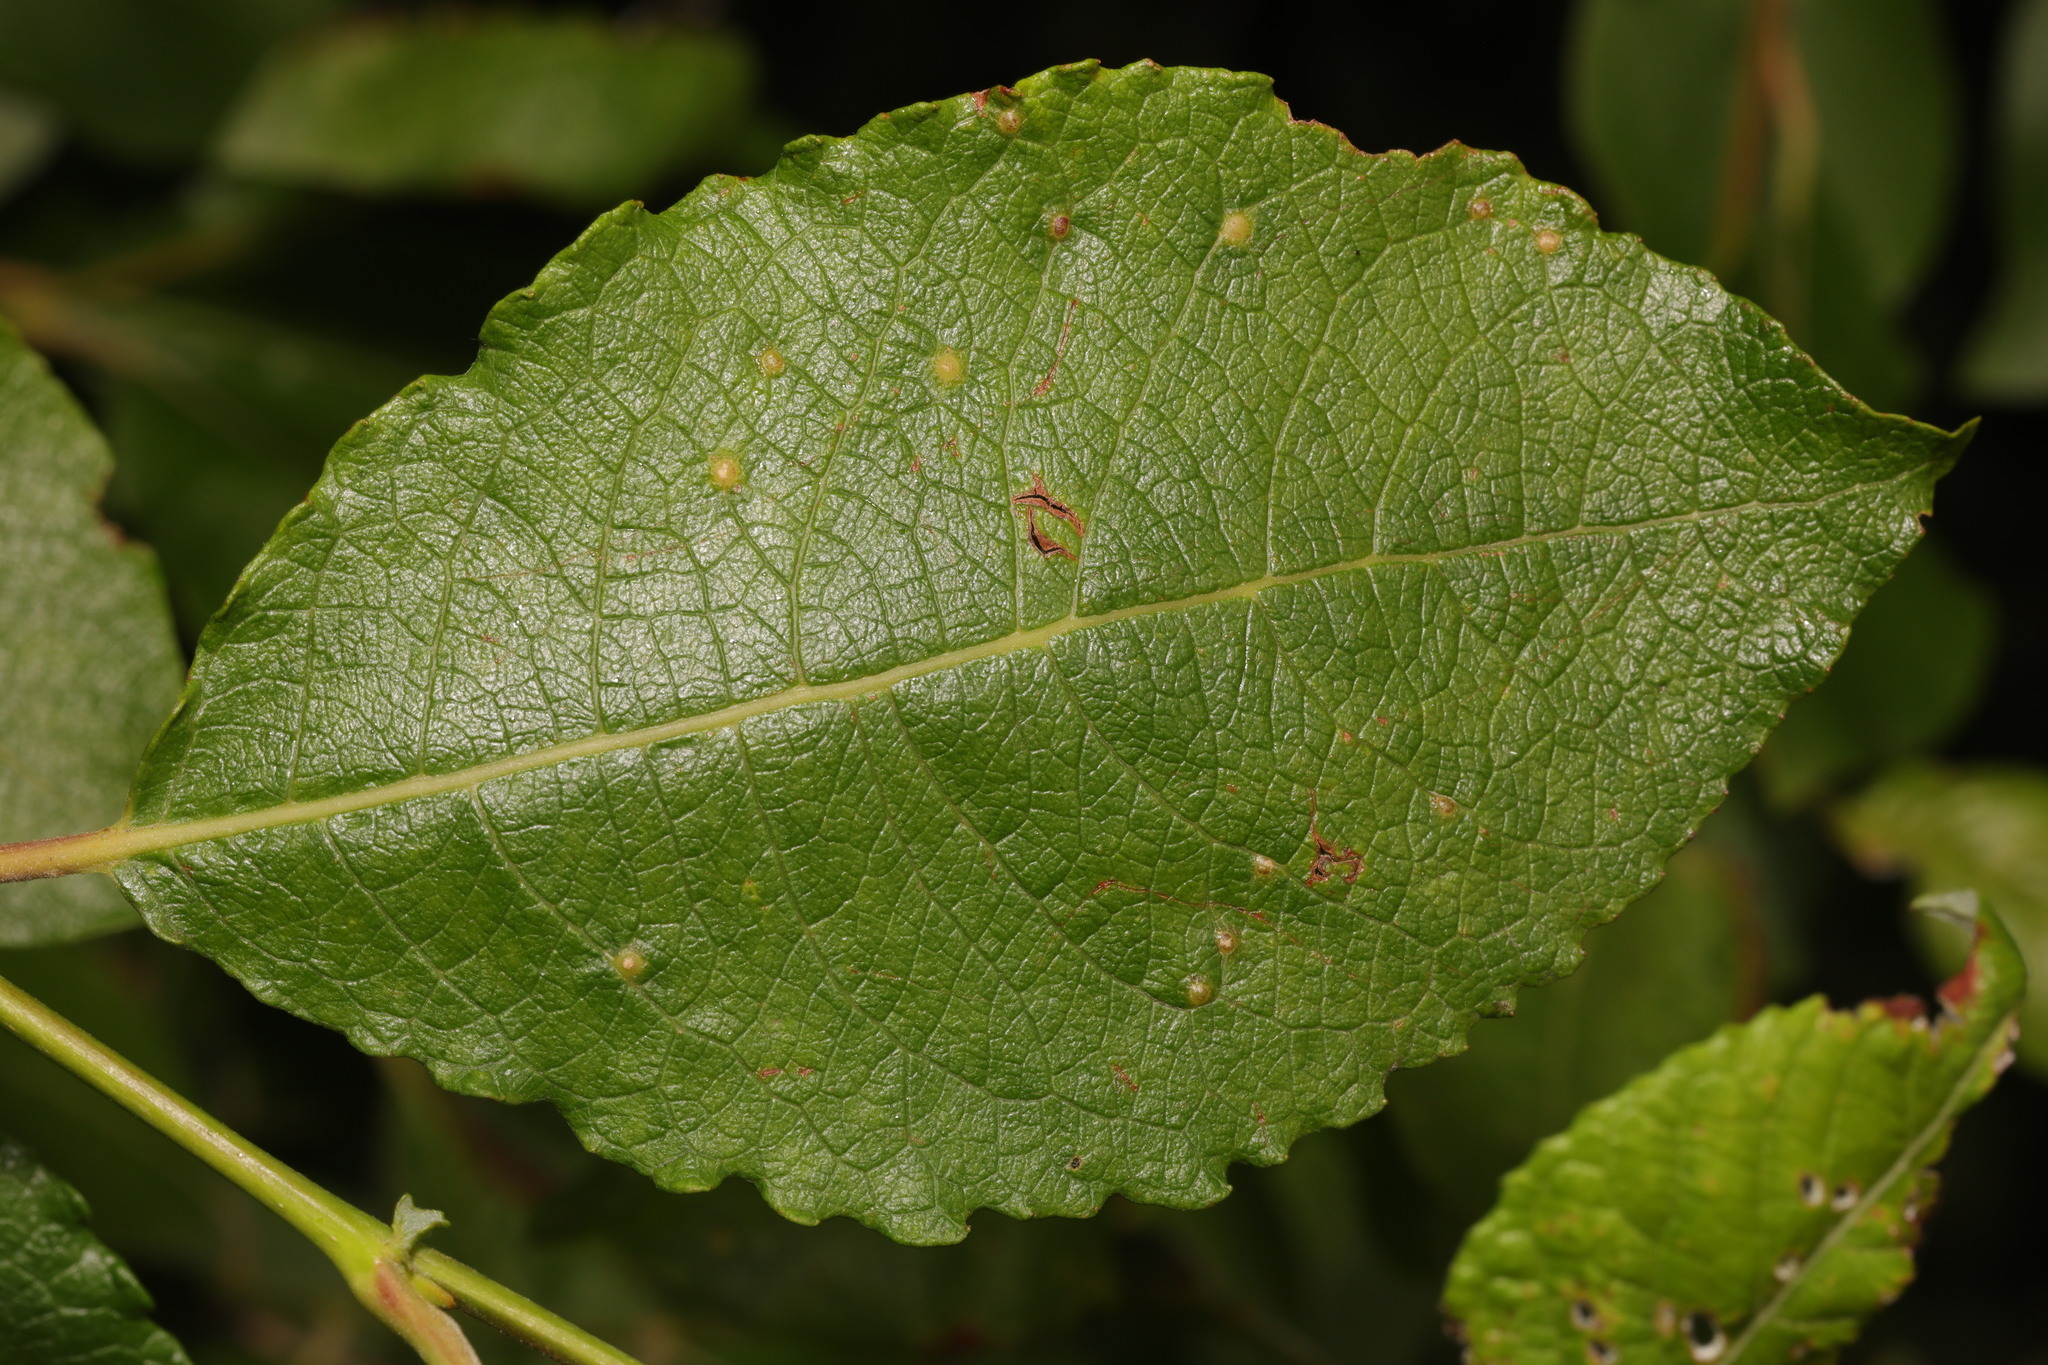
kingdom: Plantae
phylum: Tracheophyta
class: Magnoliopsida
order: Malpighiales
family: Salicaceae
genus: Salix
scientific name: Salix caprea
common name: Goat willow
